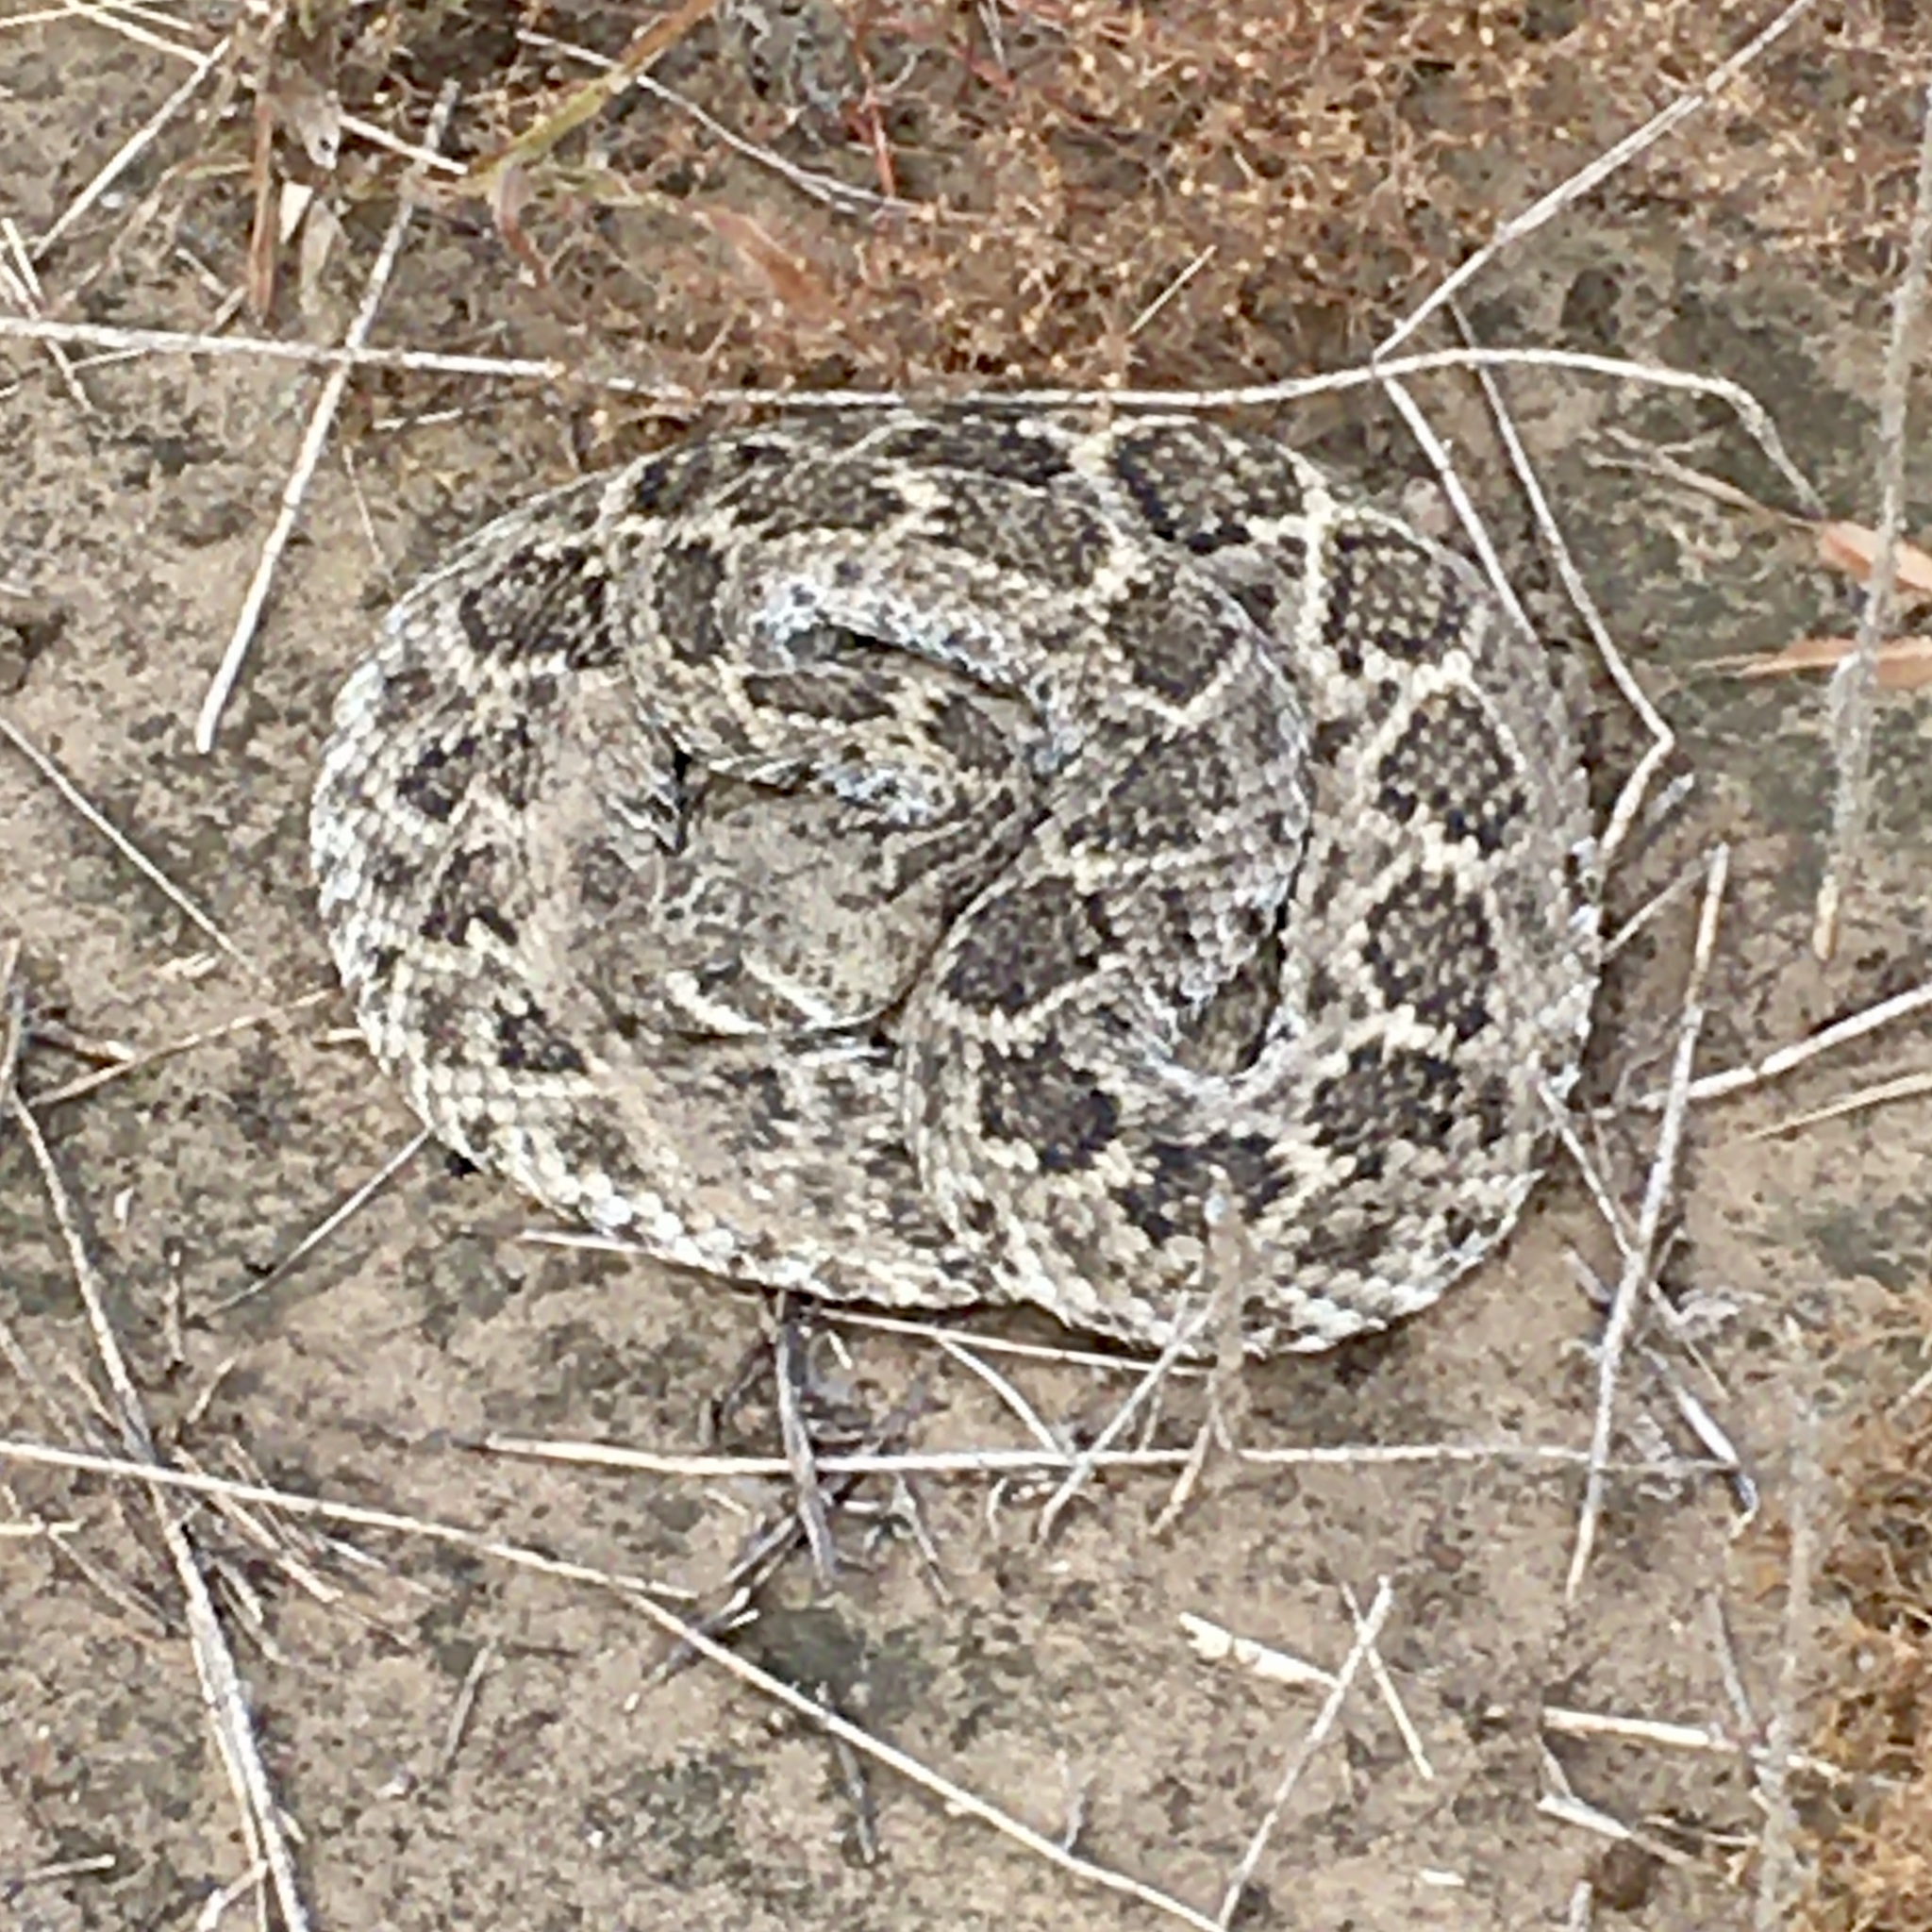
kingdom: Animalia
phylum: Chordata
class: Squamata
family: Viperidae
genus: Crotalus
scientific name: Crotalus atrox
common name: Western diamond-backed rattlesnake
